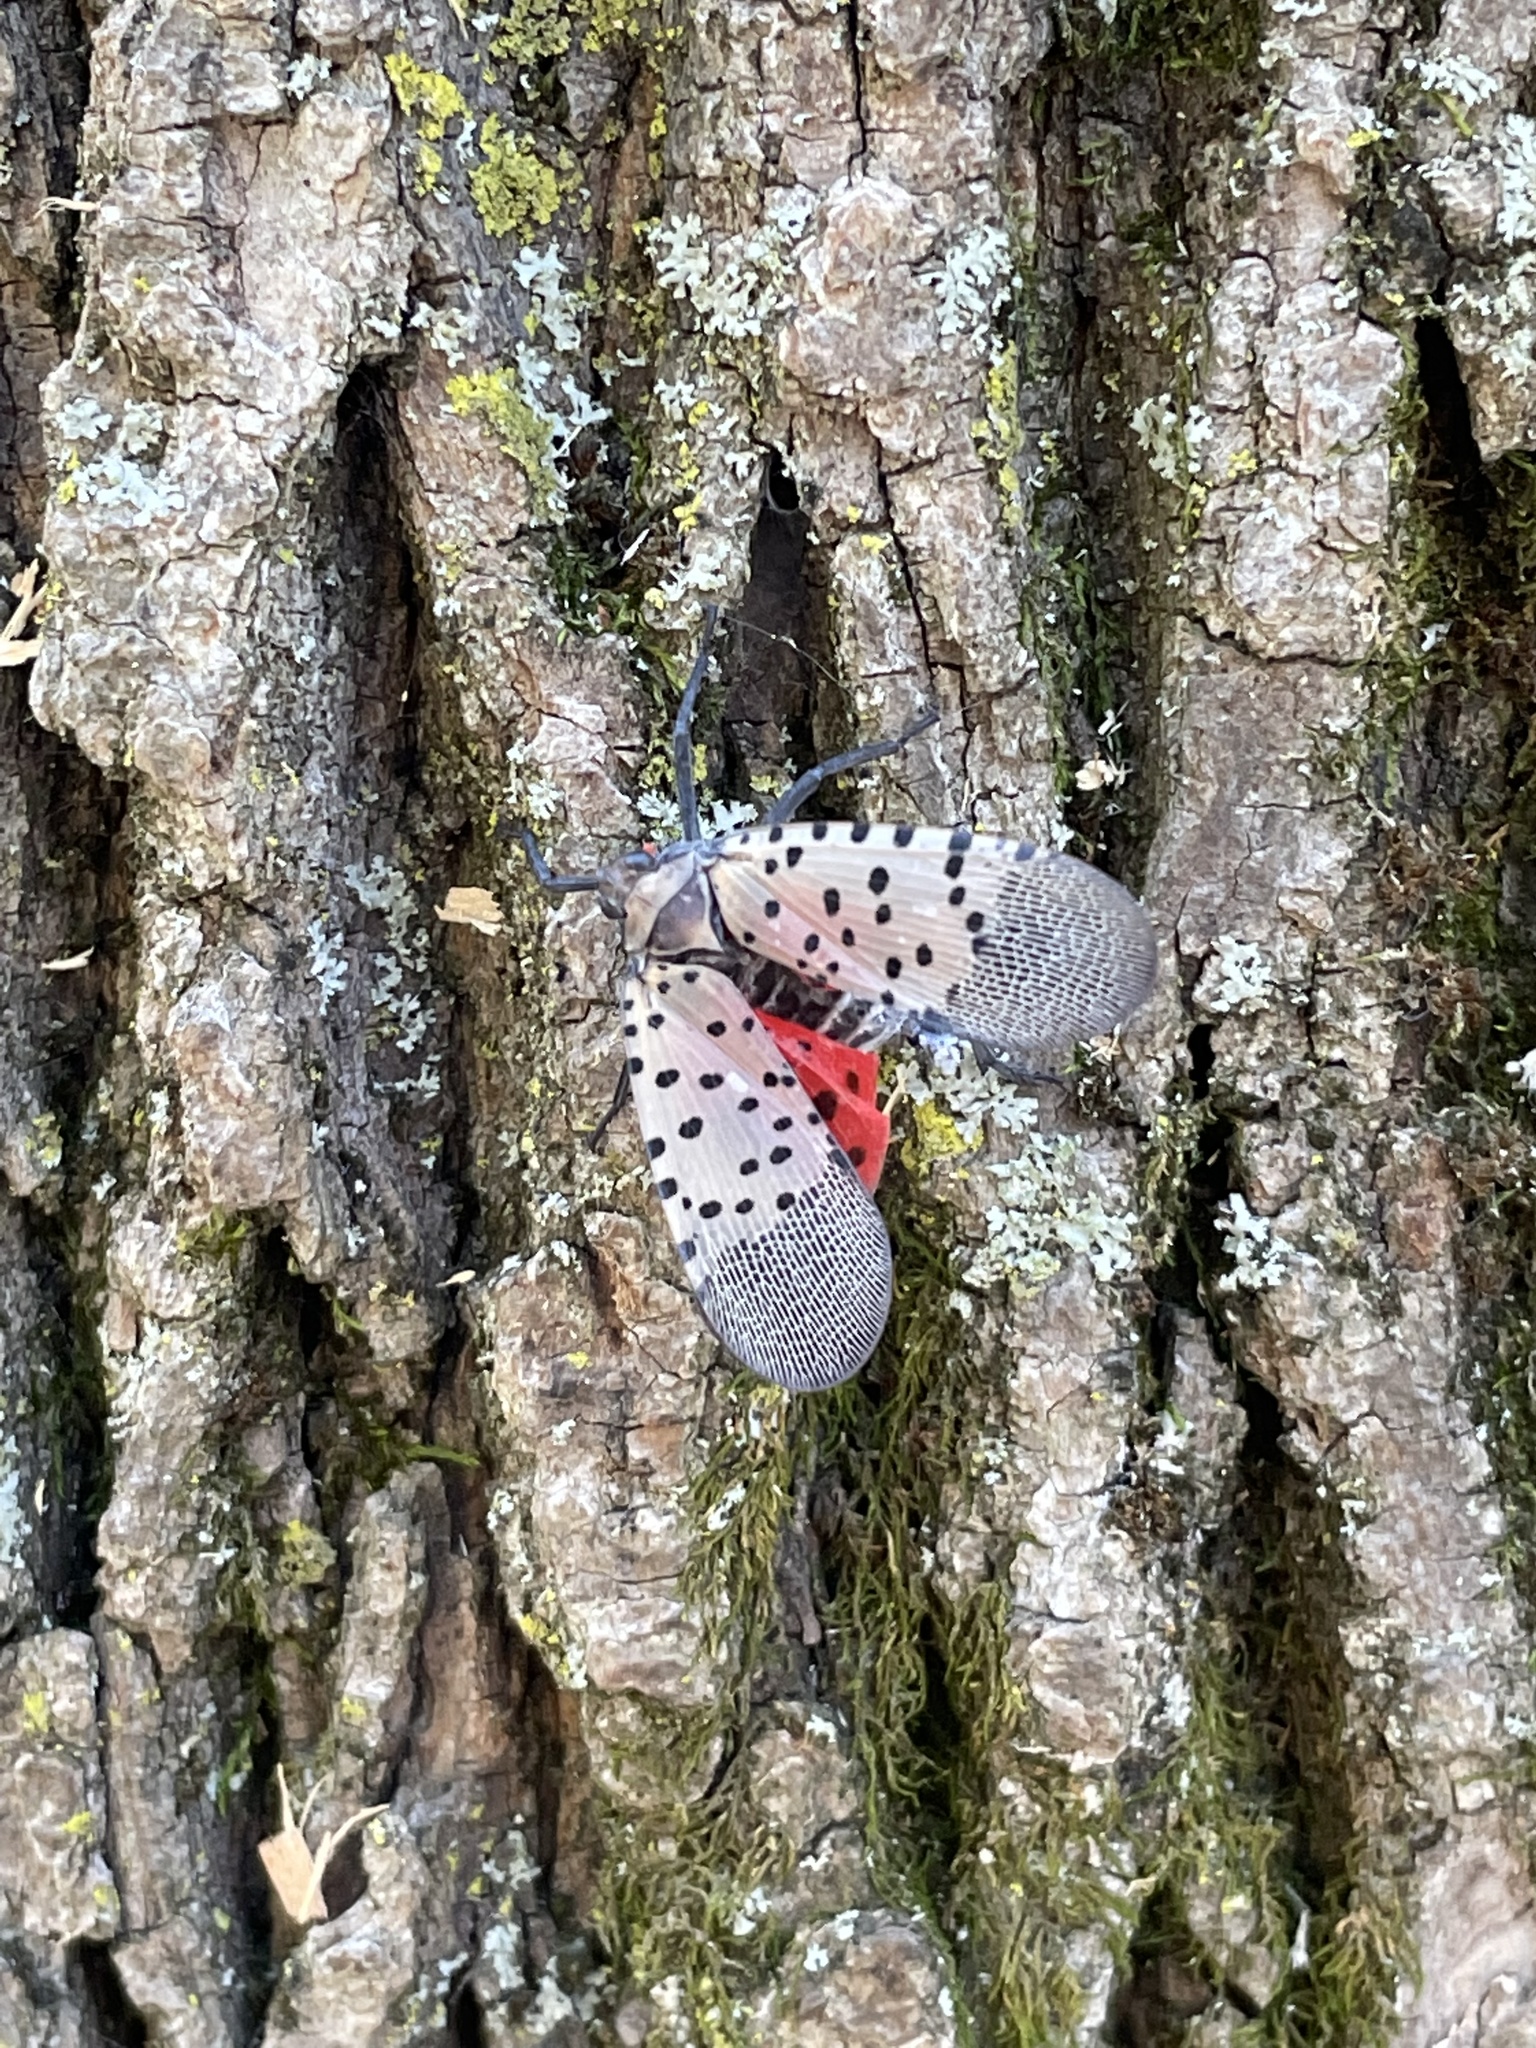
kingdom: Animalia
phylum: Arthropoda
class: Insecta
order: Hemiptera
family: Fulgoridae
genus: Lycorma
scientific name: Lycorma delicatula
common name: Spotted lanternfly
